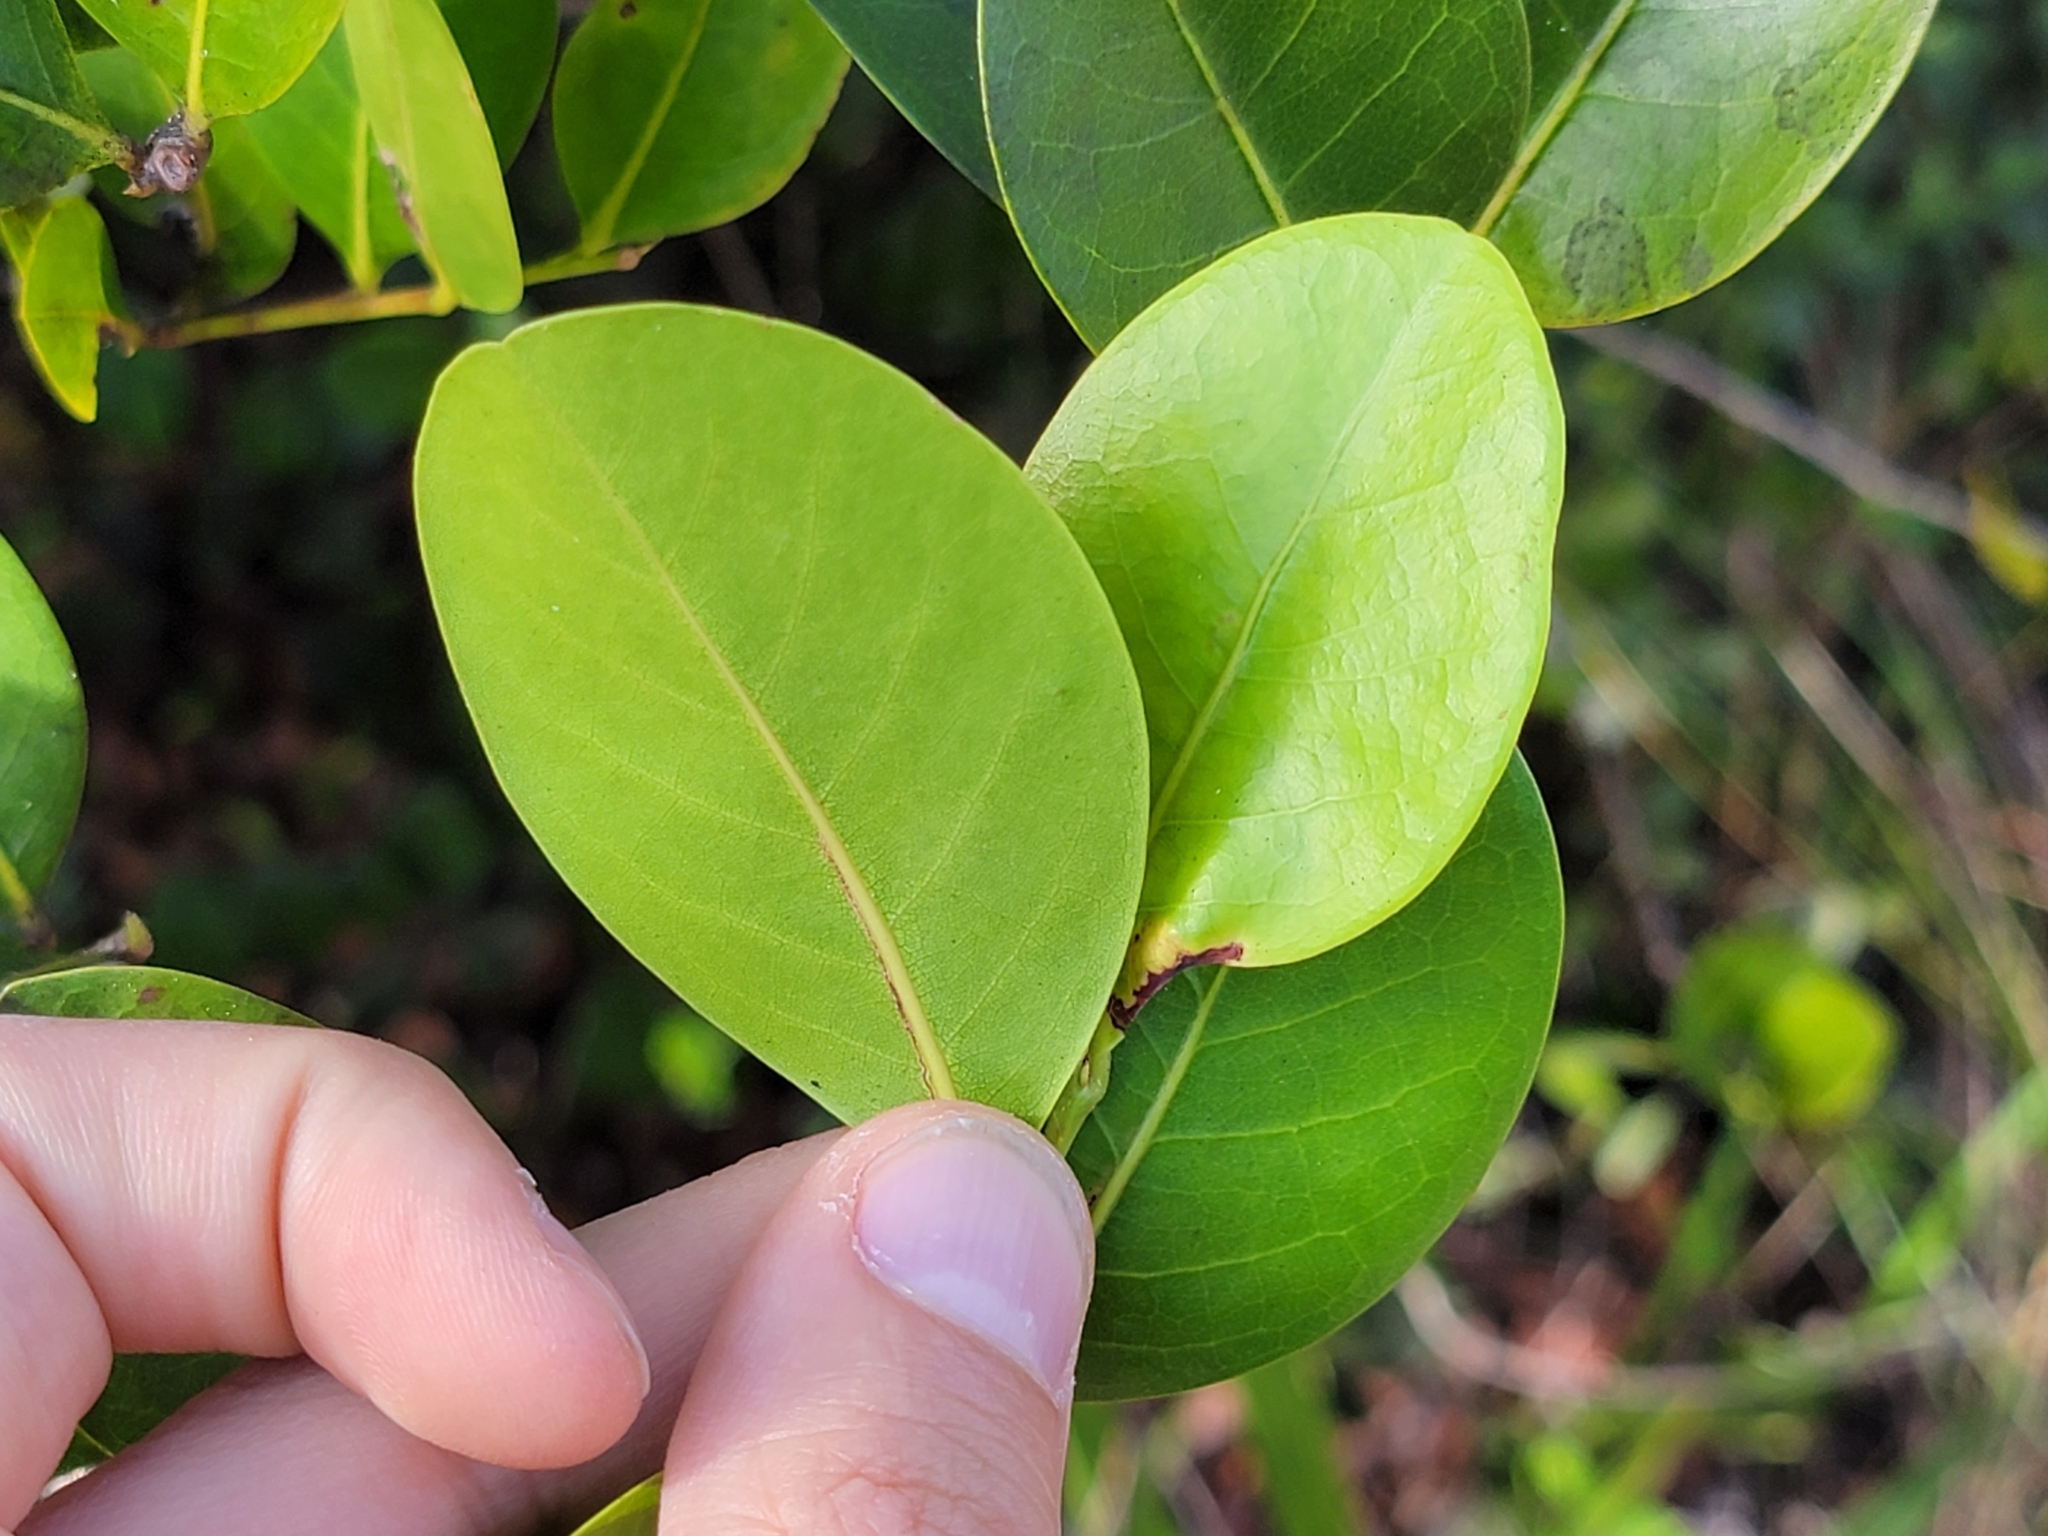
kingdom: Plantae
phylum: Tracheophyta
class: Magnoliopsida
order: Malpighiales
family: Chrysobalanaceae
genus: Chrysobalanus
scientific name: Chrysobalanus icaco
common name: Coco plum
